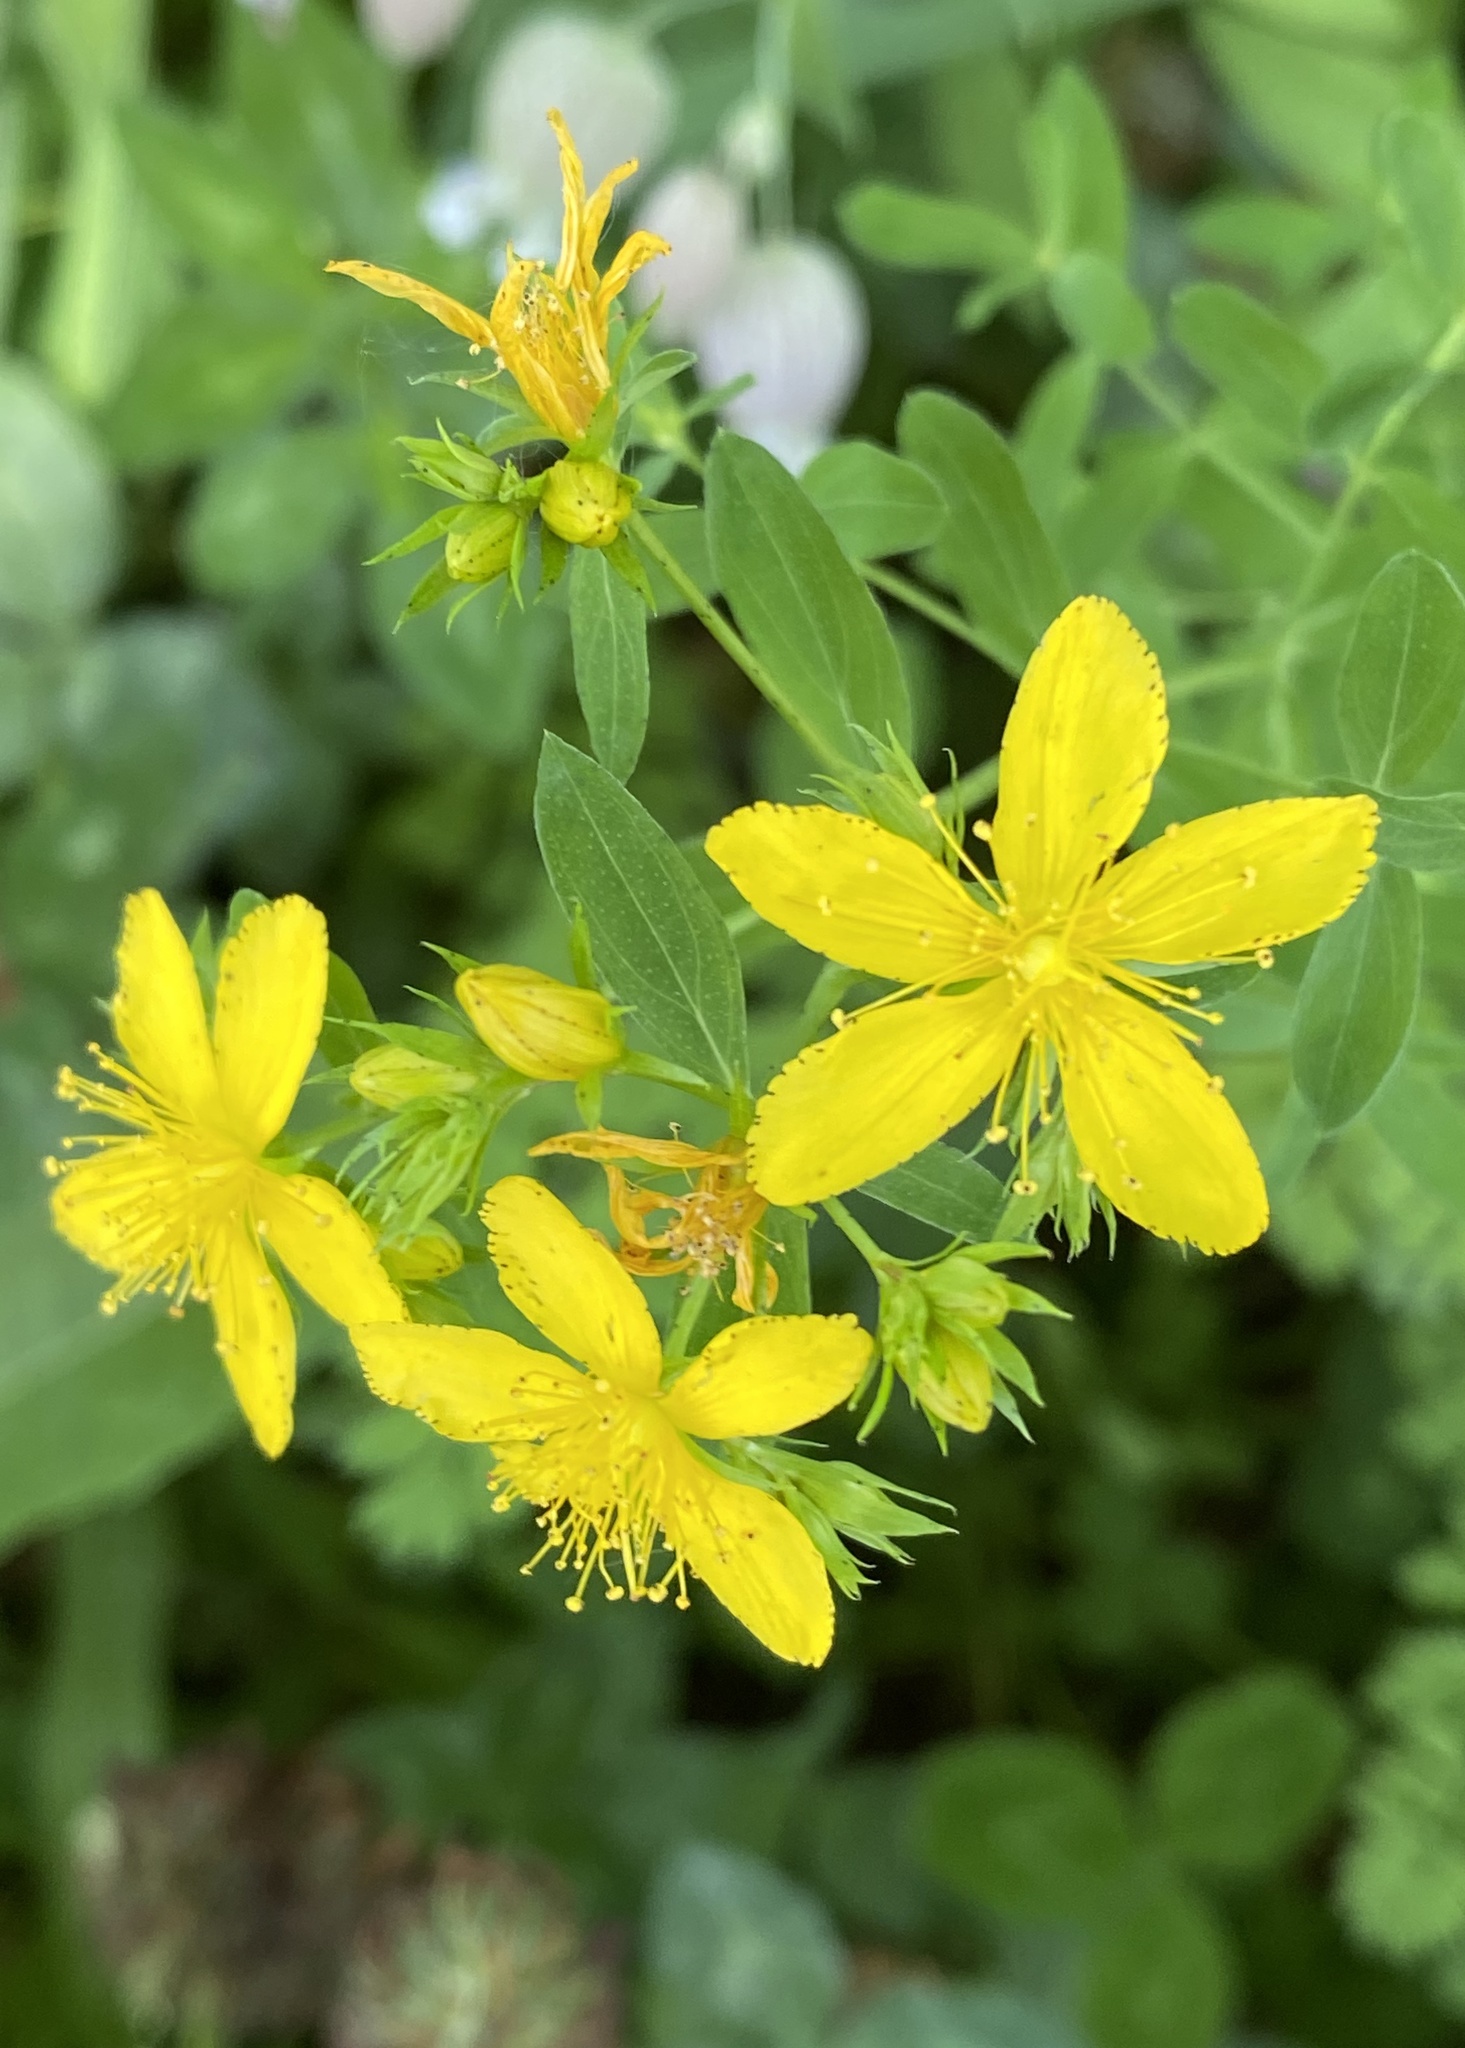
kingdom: Plantae
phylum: Tracheophyta
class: Magnoliopsida
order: Malpighiales
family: Hypericaceae
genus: Hypericum
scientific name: Hypericum perforatum
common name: Common st. johnswort
